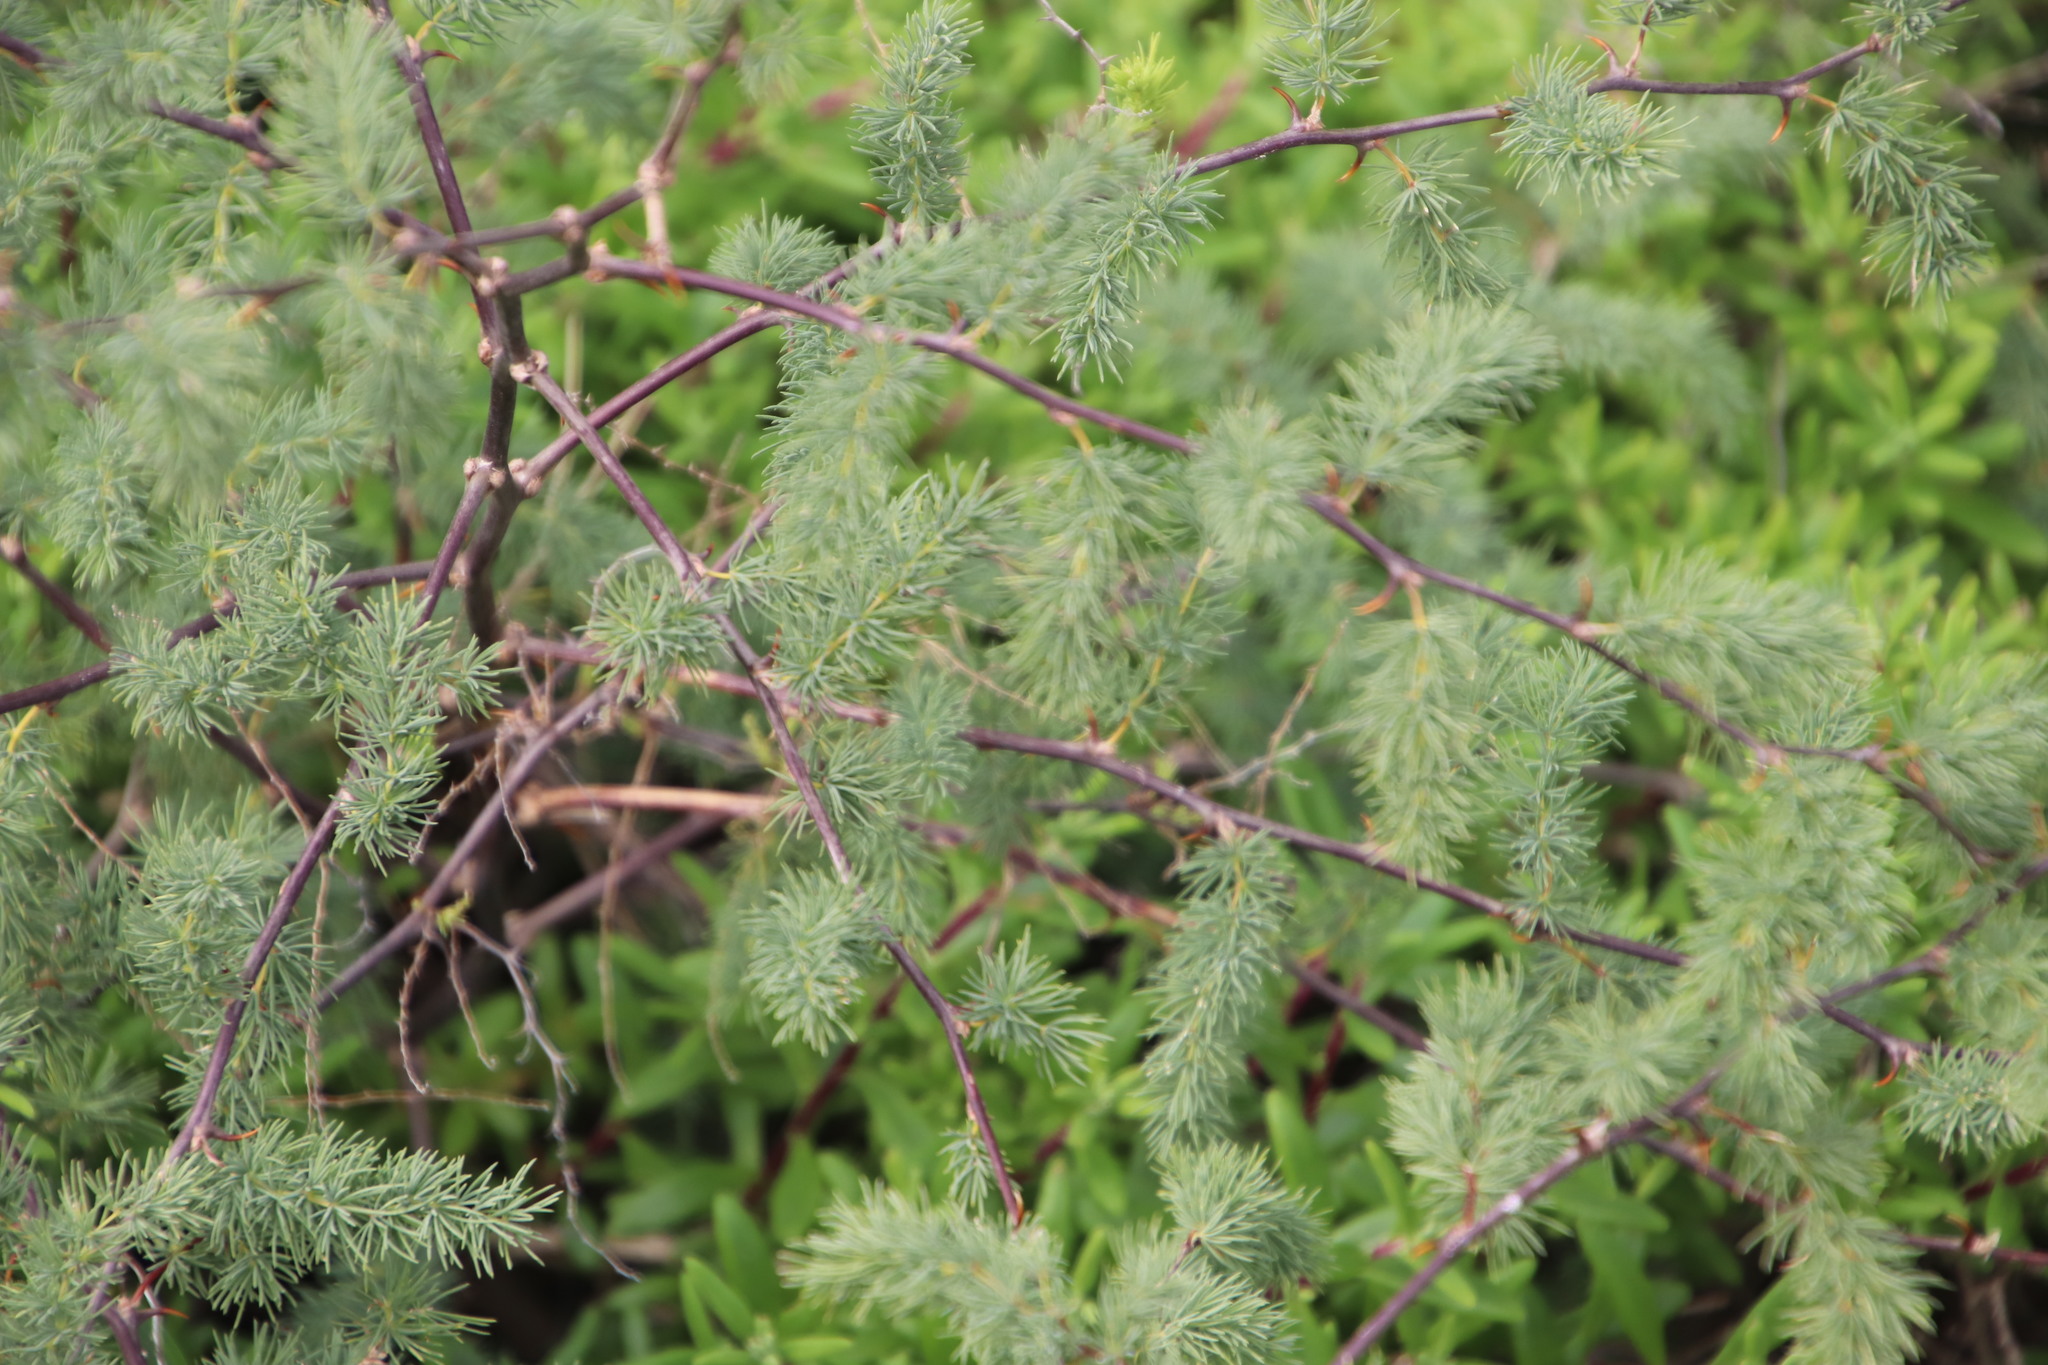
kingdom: Plantae
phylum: Tracheophyta
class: Liliopsida
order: Asparagales
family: Asparagaceae
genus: Asparagus
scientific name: Asparagus rubicundus
